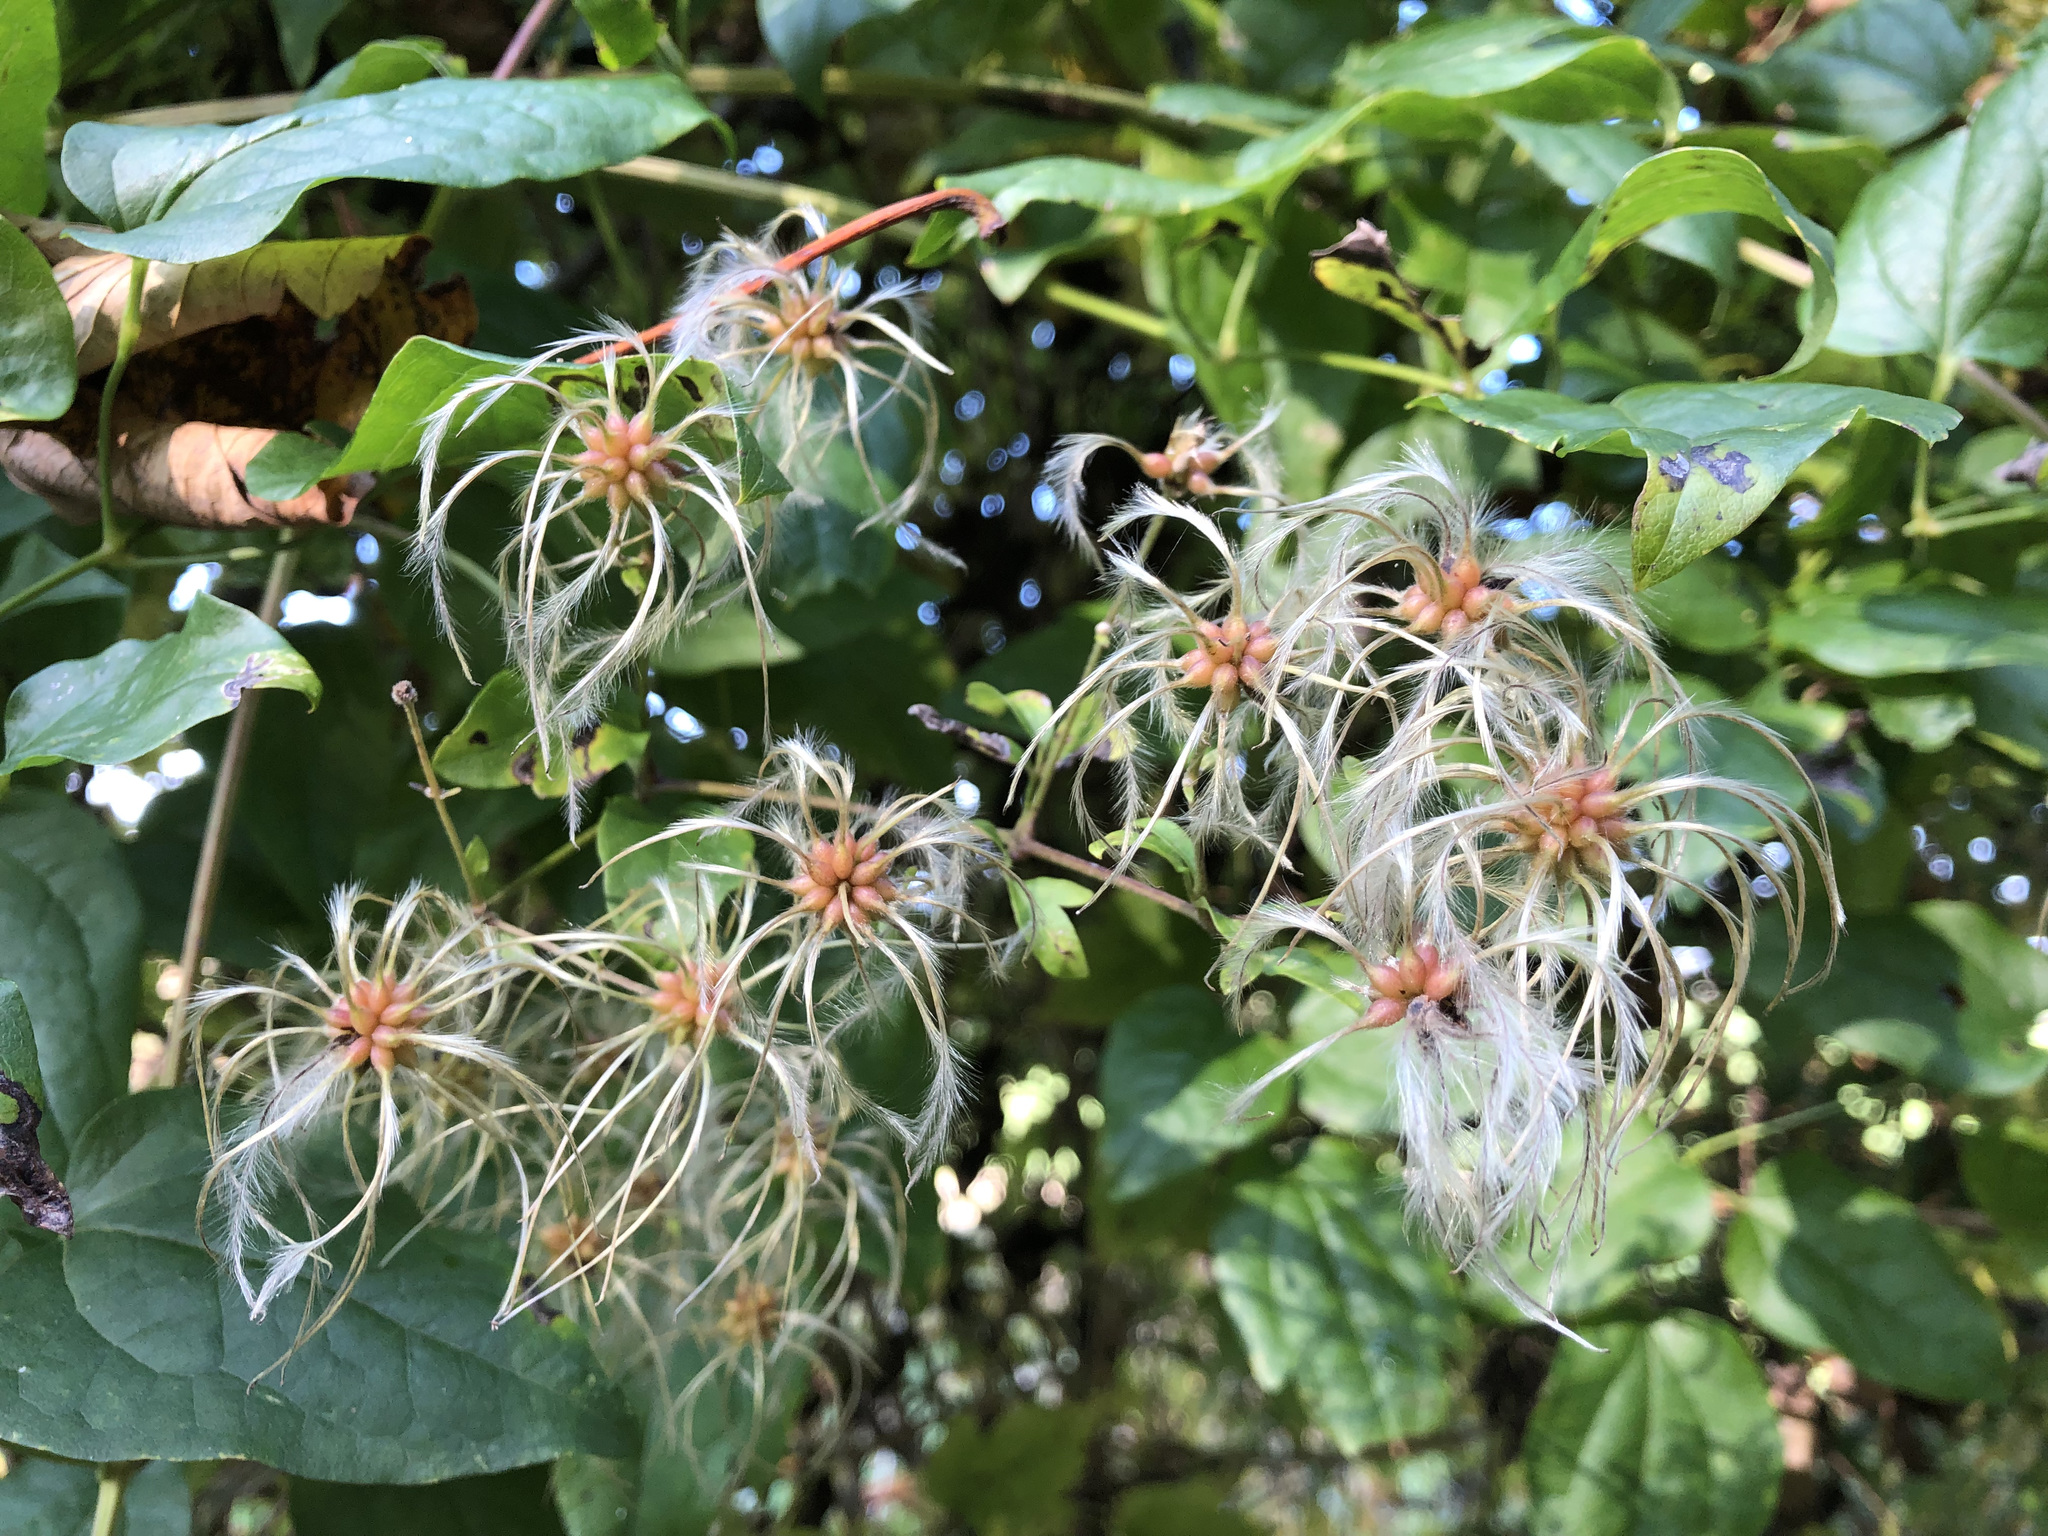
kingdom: Plantae
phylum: Tracheophyta
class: Magnoliopsida
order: Ranunculales
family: Ranunculaceae
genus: Clematis
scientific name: Clematis vitalba
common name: Evergreen clematis
